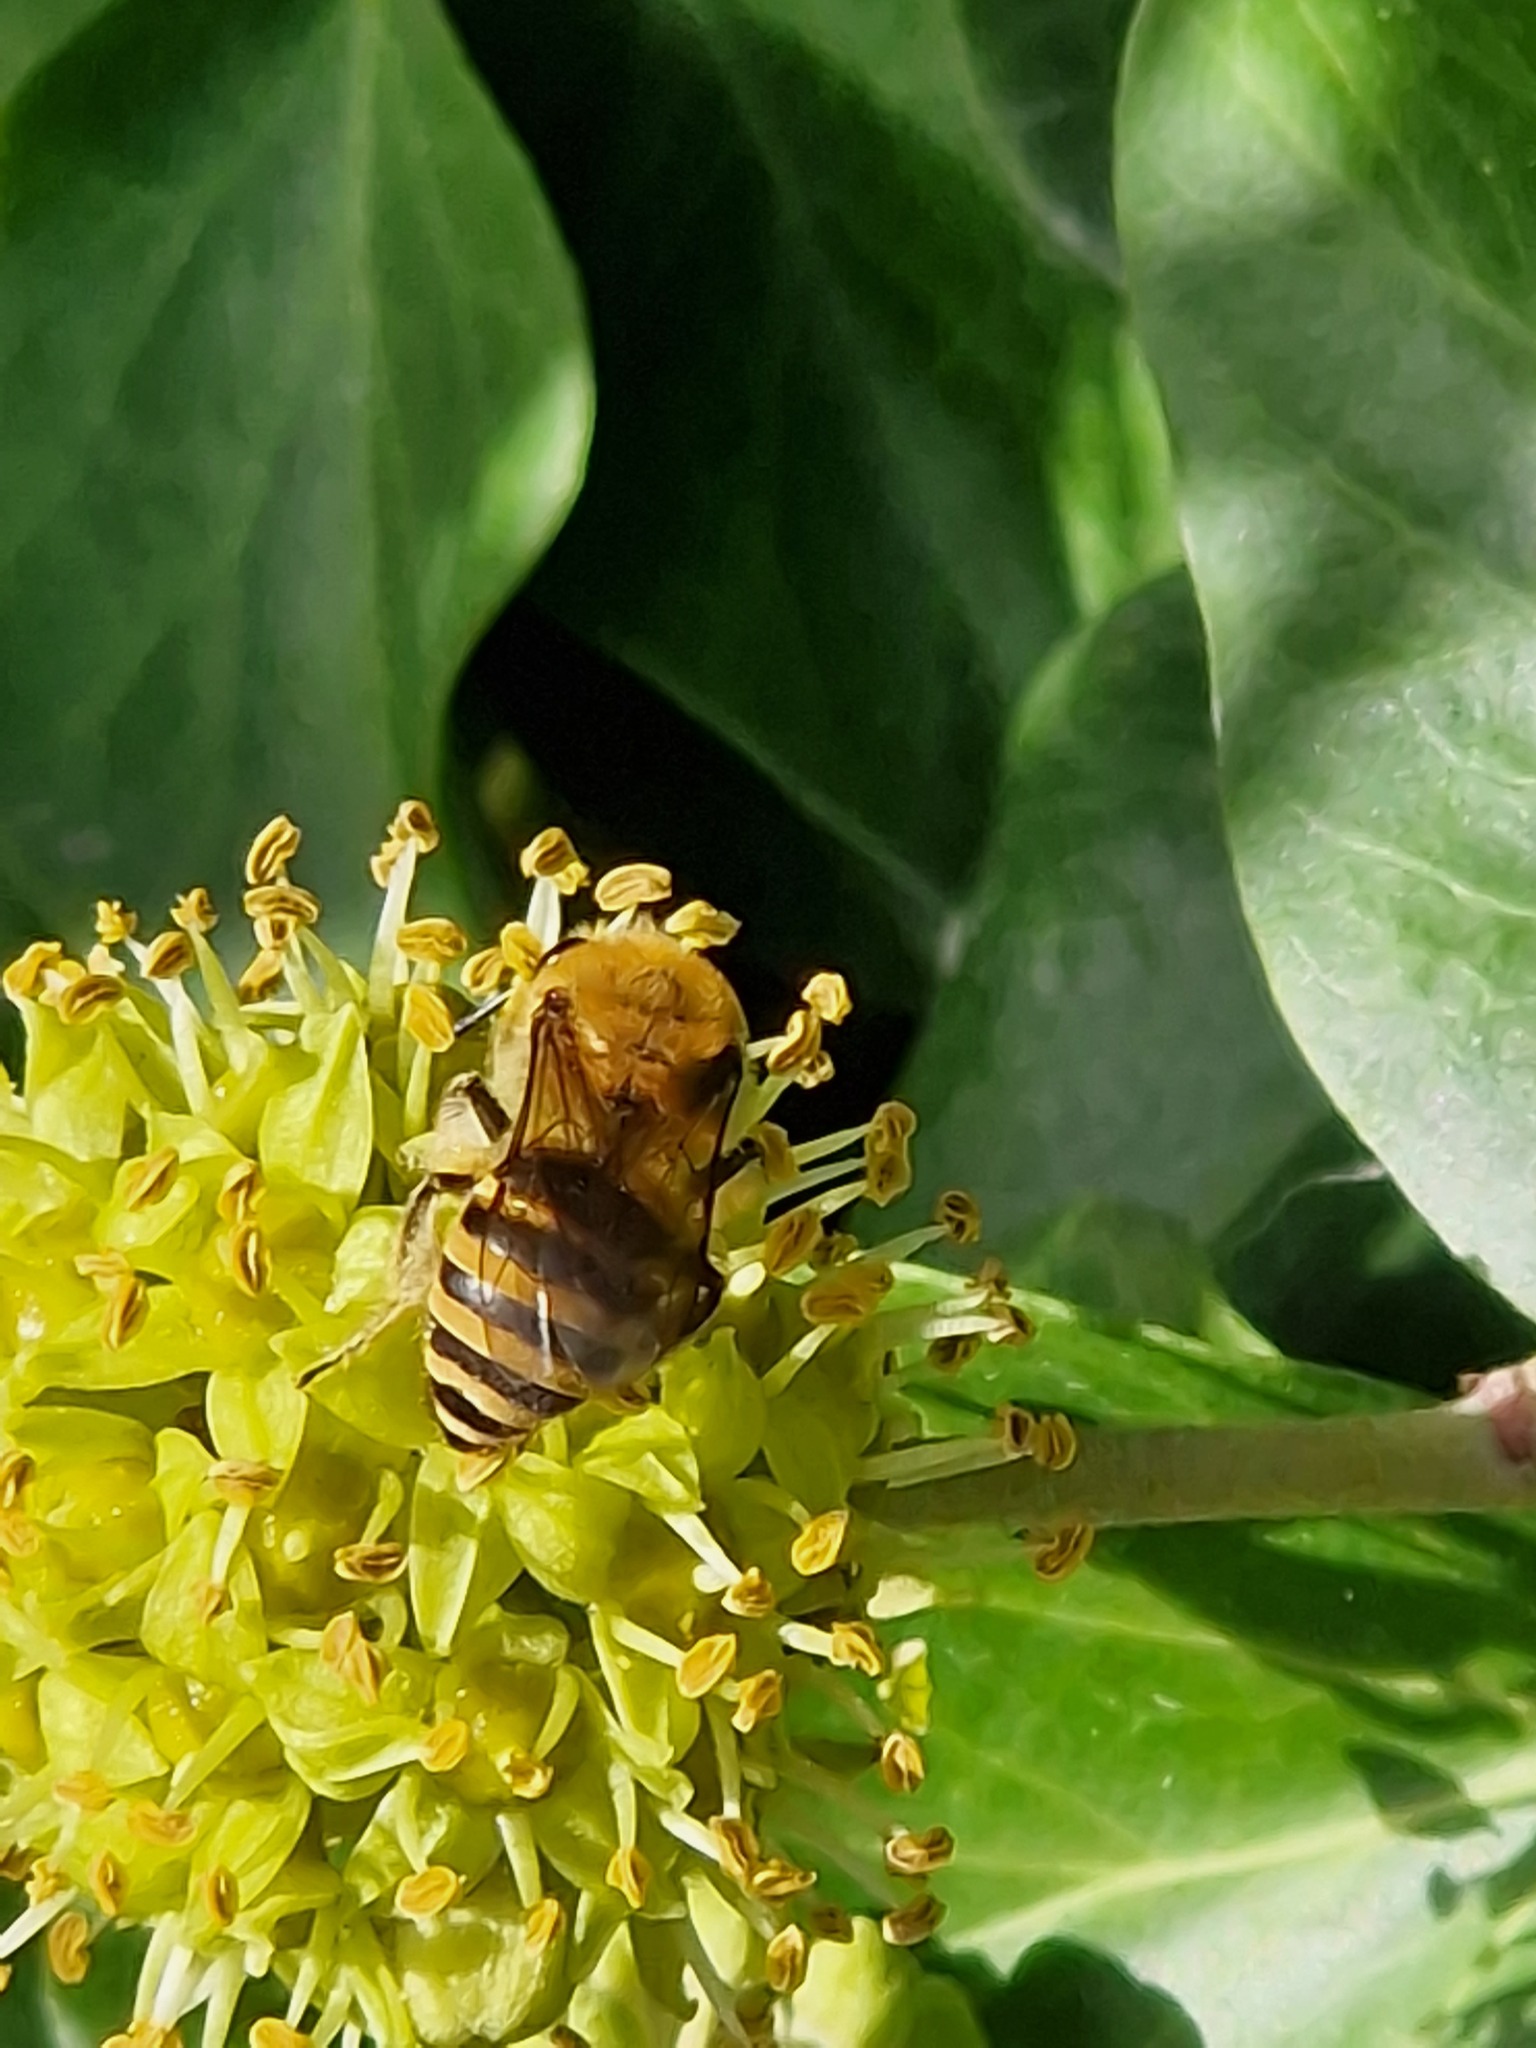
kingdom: Animalia
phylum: Arthropoda
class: Insecta
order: Hymenoptera
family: Colletidae
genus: Colletes
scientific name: Colletes hederae
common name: Ivy bee
